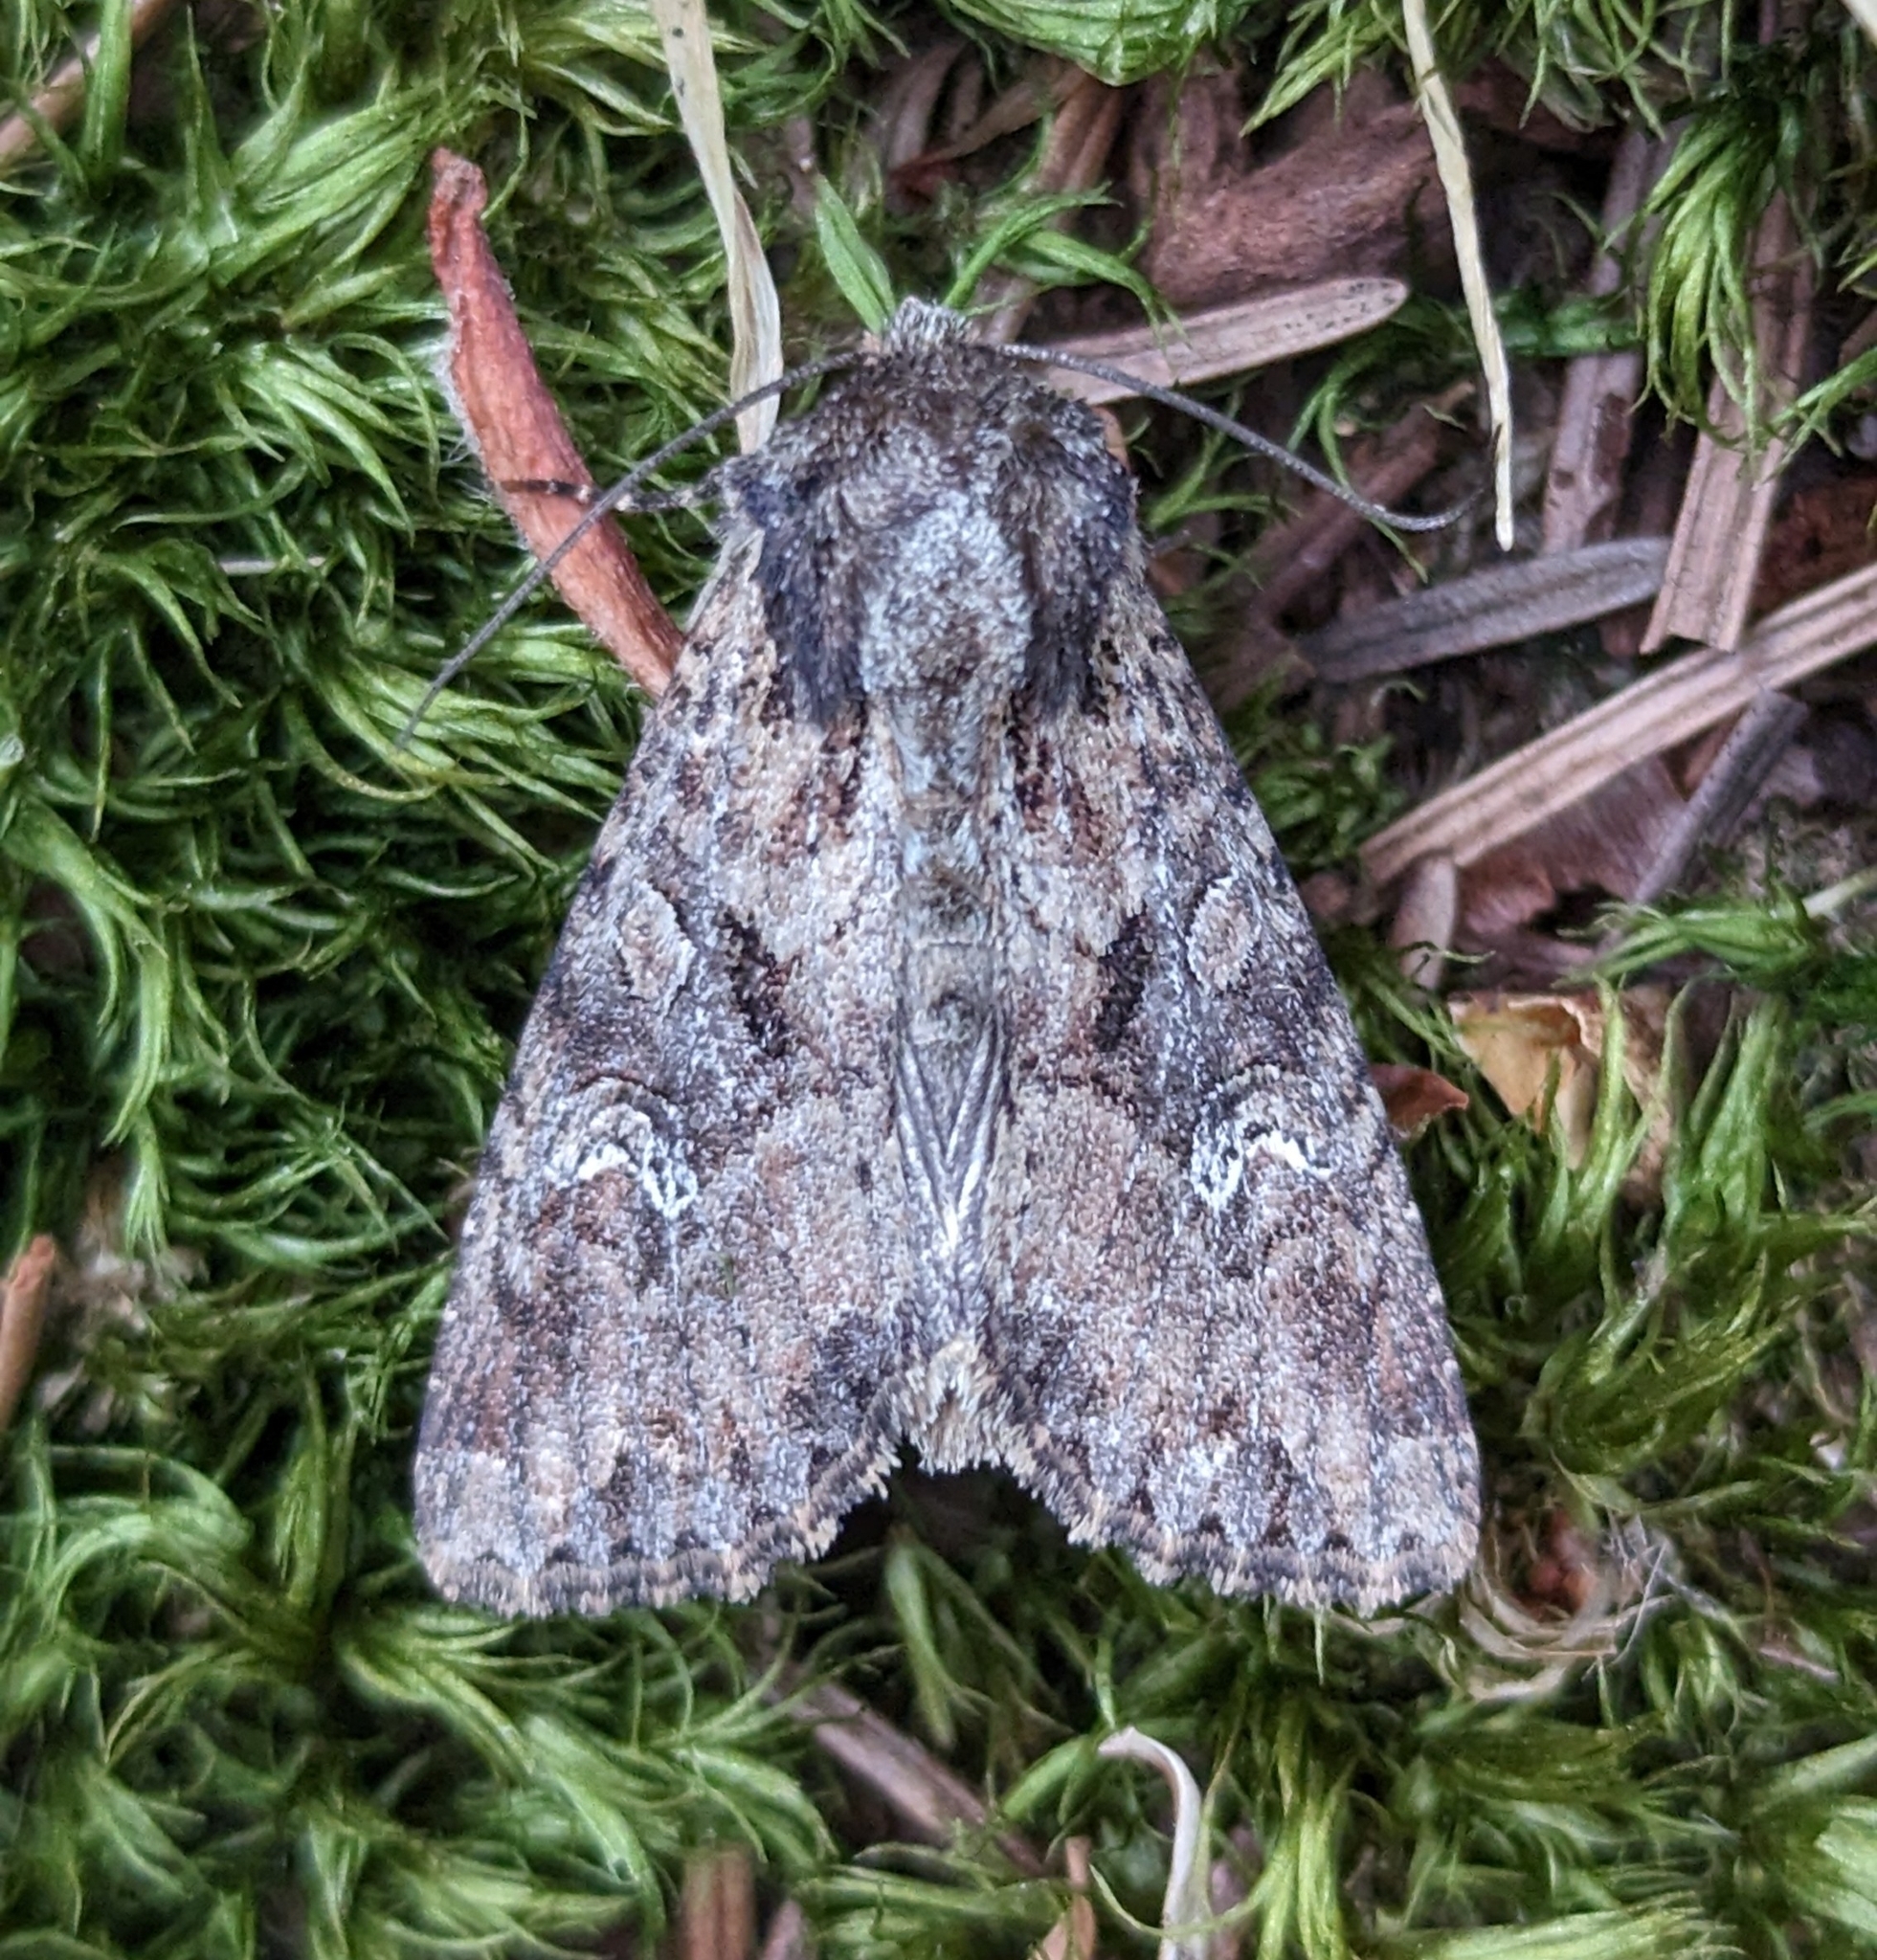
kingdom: Animalia
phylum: Arthropoda
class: Insecta
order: Lepidoptera
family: Noctuidae
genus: Apamea
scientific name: Apamea unanimis
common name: Small clouded brindle
